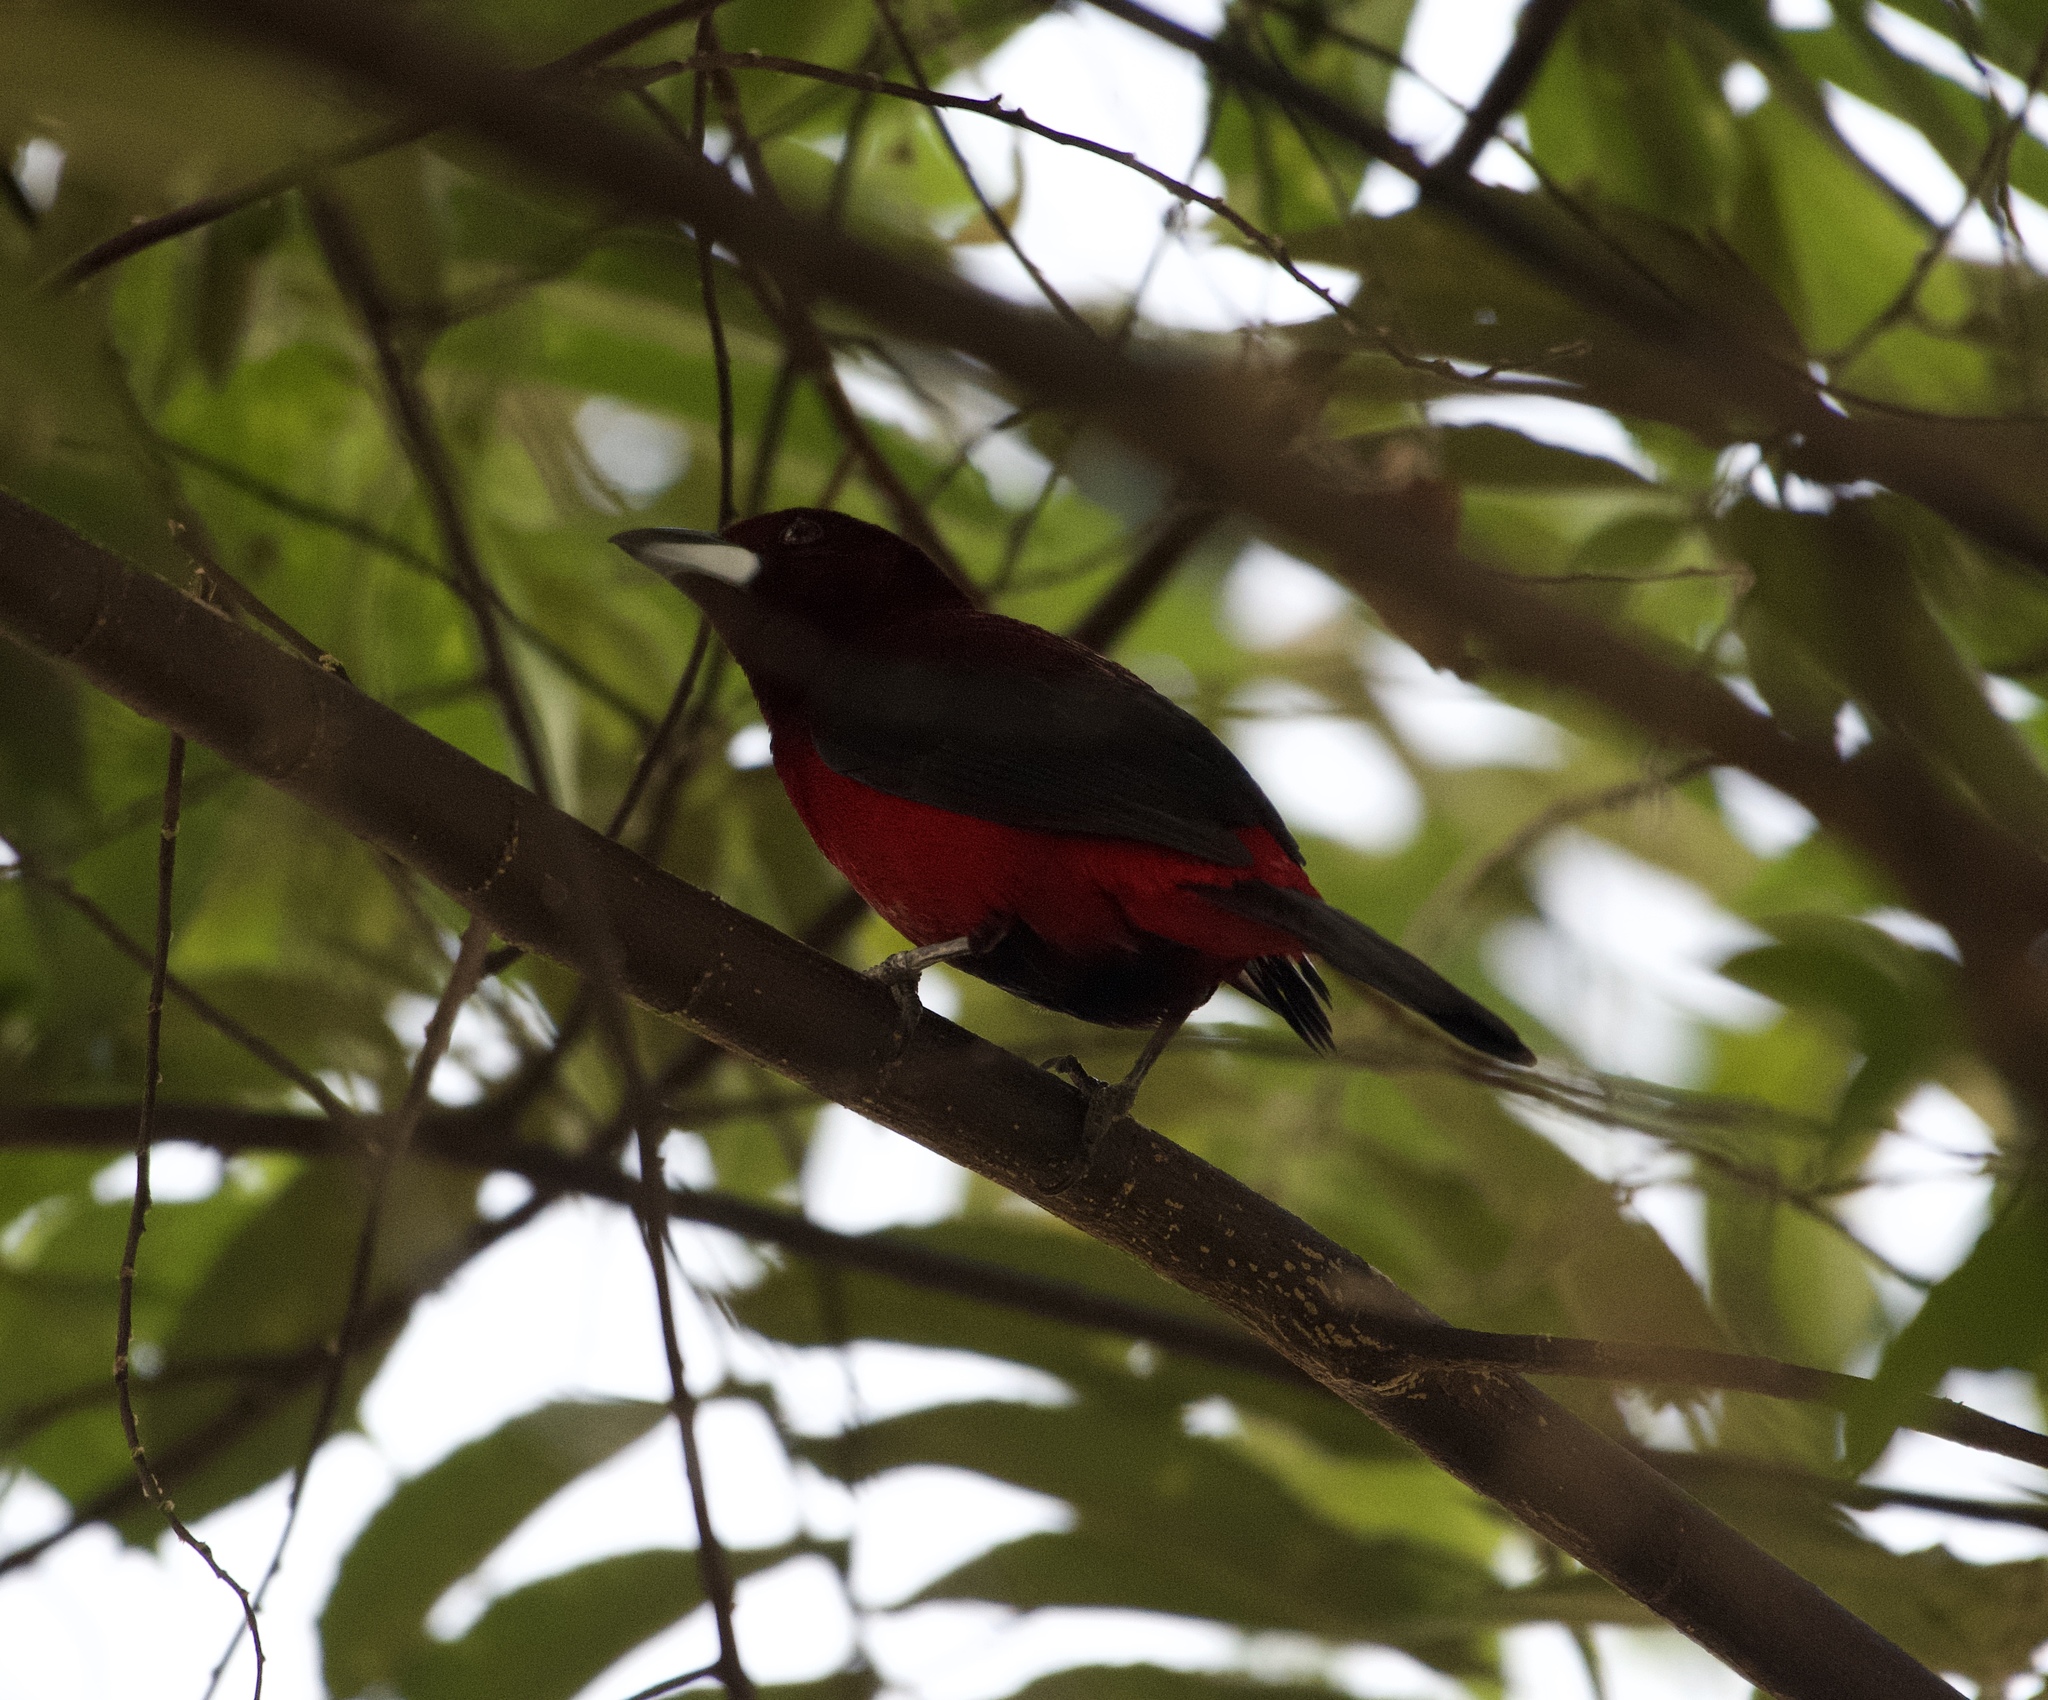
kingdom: Animalia
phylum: Chordata
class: Aves
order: Passeriformes
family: Thraupidae
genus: Ramphocelus
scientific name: Ramphocelus dimidiatus
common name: Crimson-backed tanager
